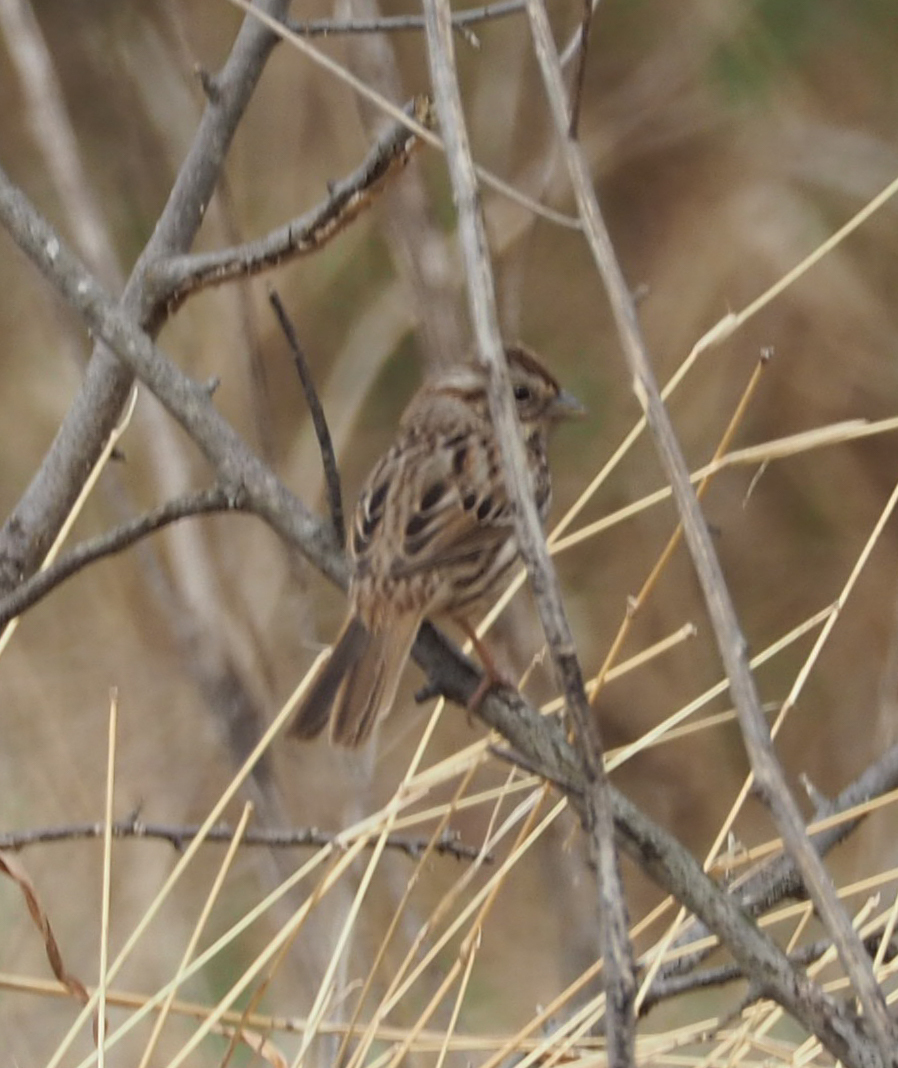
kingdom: Animalia
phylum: Chordata
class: Aves
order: Passeriformes
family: Passerellidae
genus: Melospiza
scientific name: Melospiza melodia
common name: Song sparrow
